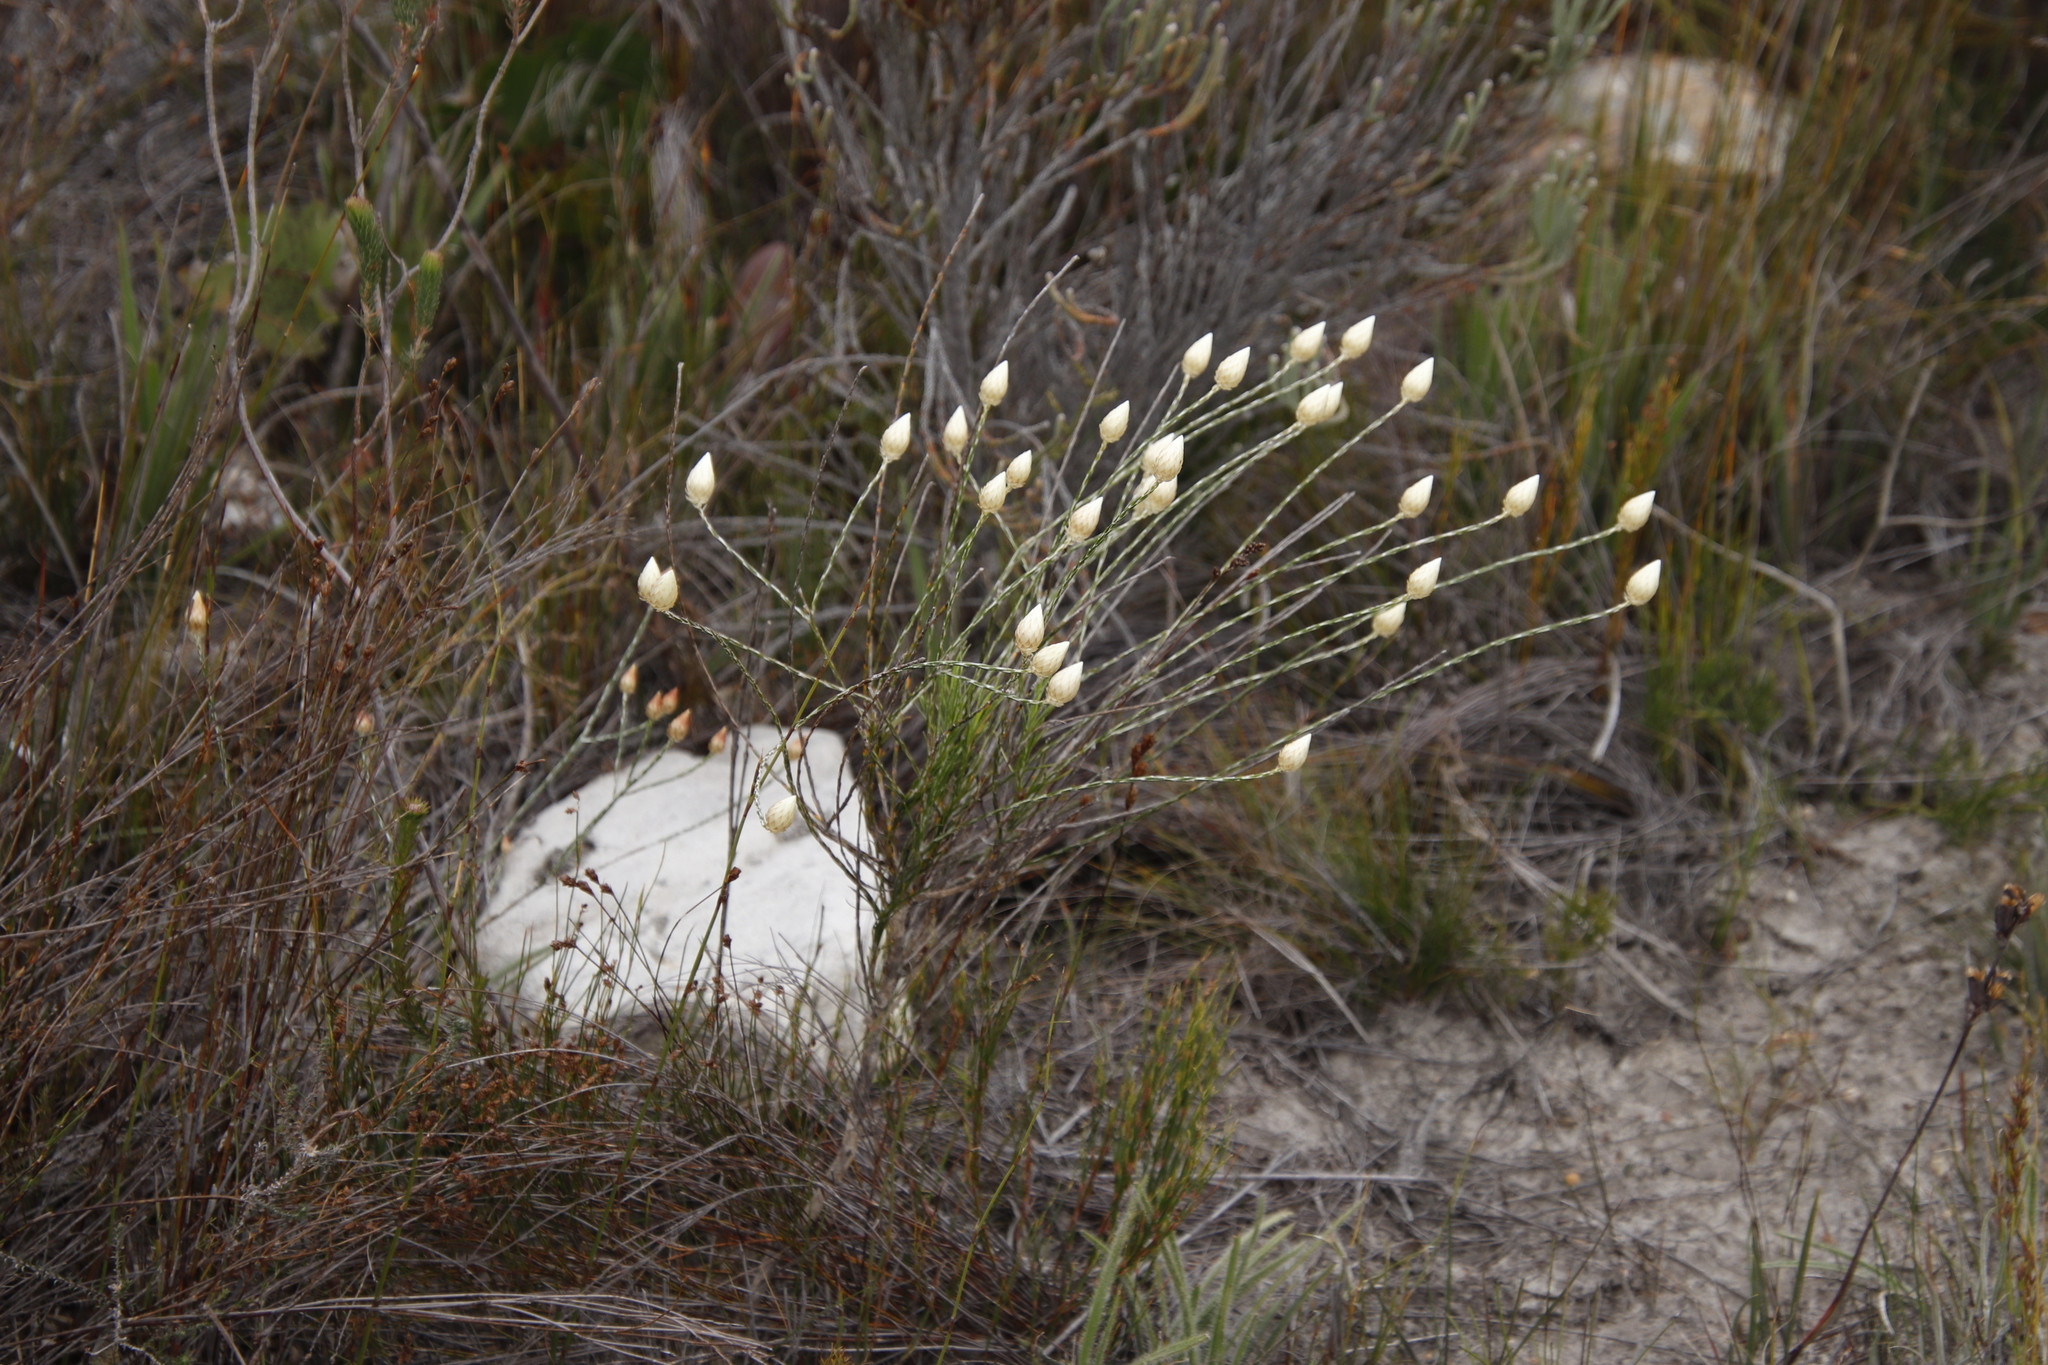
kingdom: Plantae
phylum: Tracheophyta
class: Magnoliopsida
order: Asterales
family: Asteraceae
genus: Edmondia
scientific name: Edmondia sesamoides
